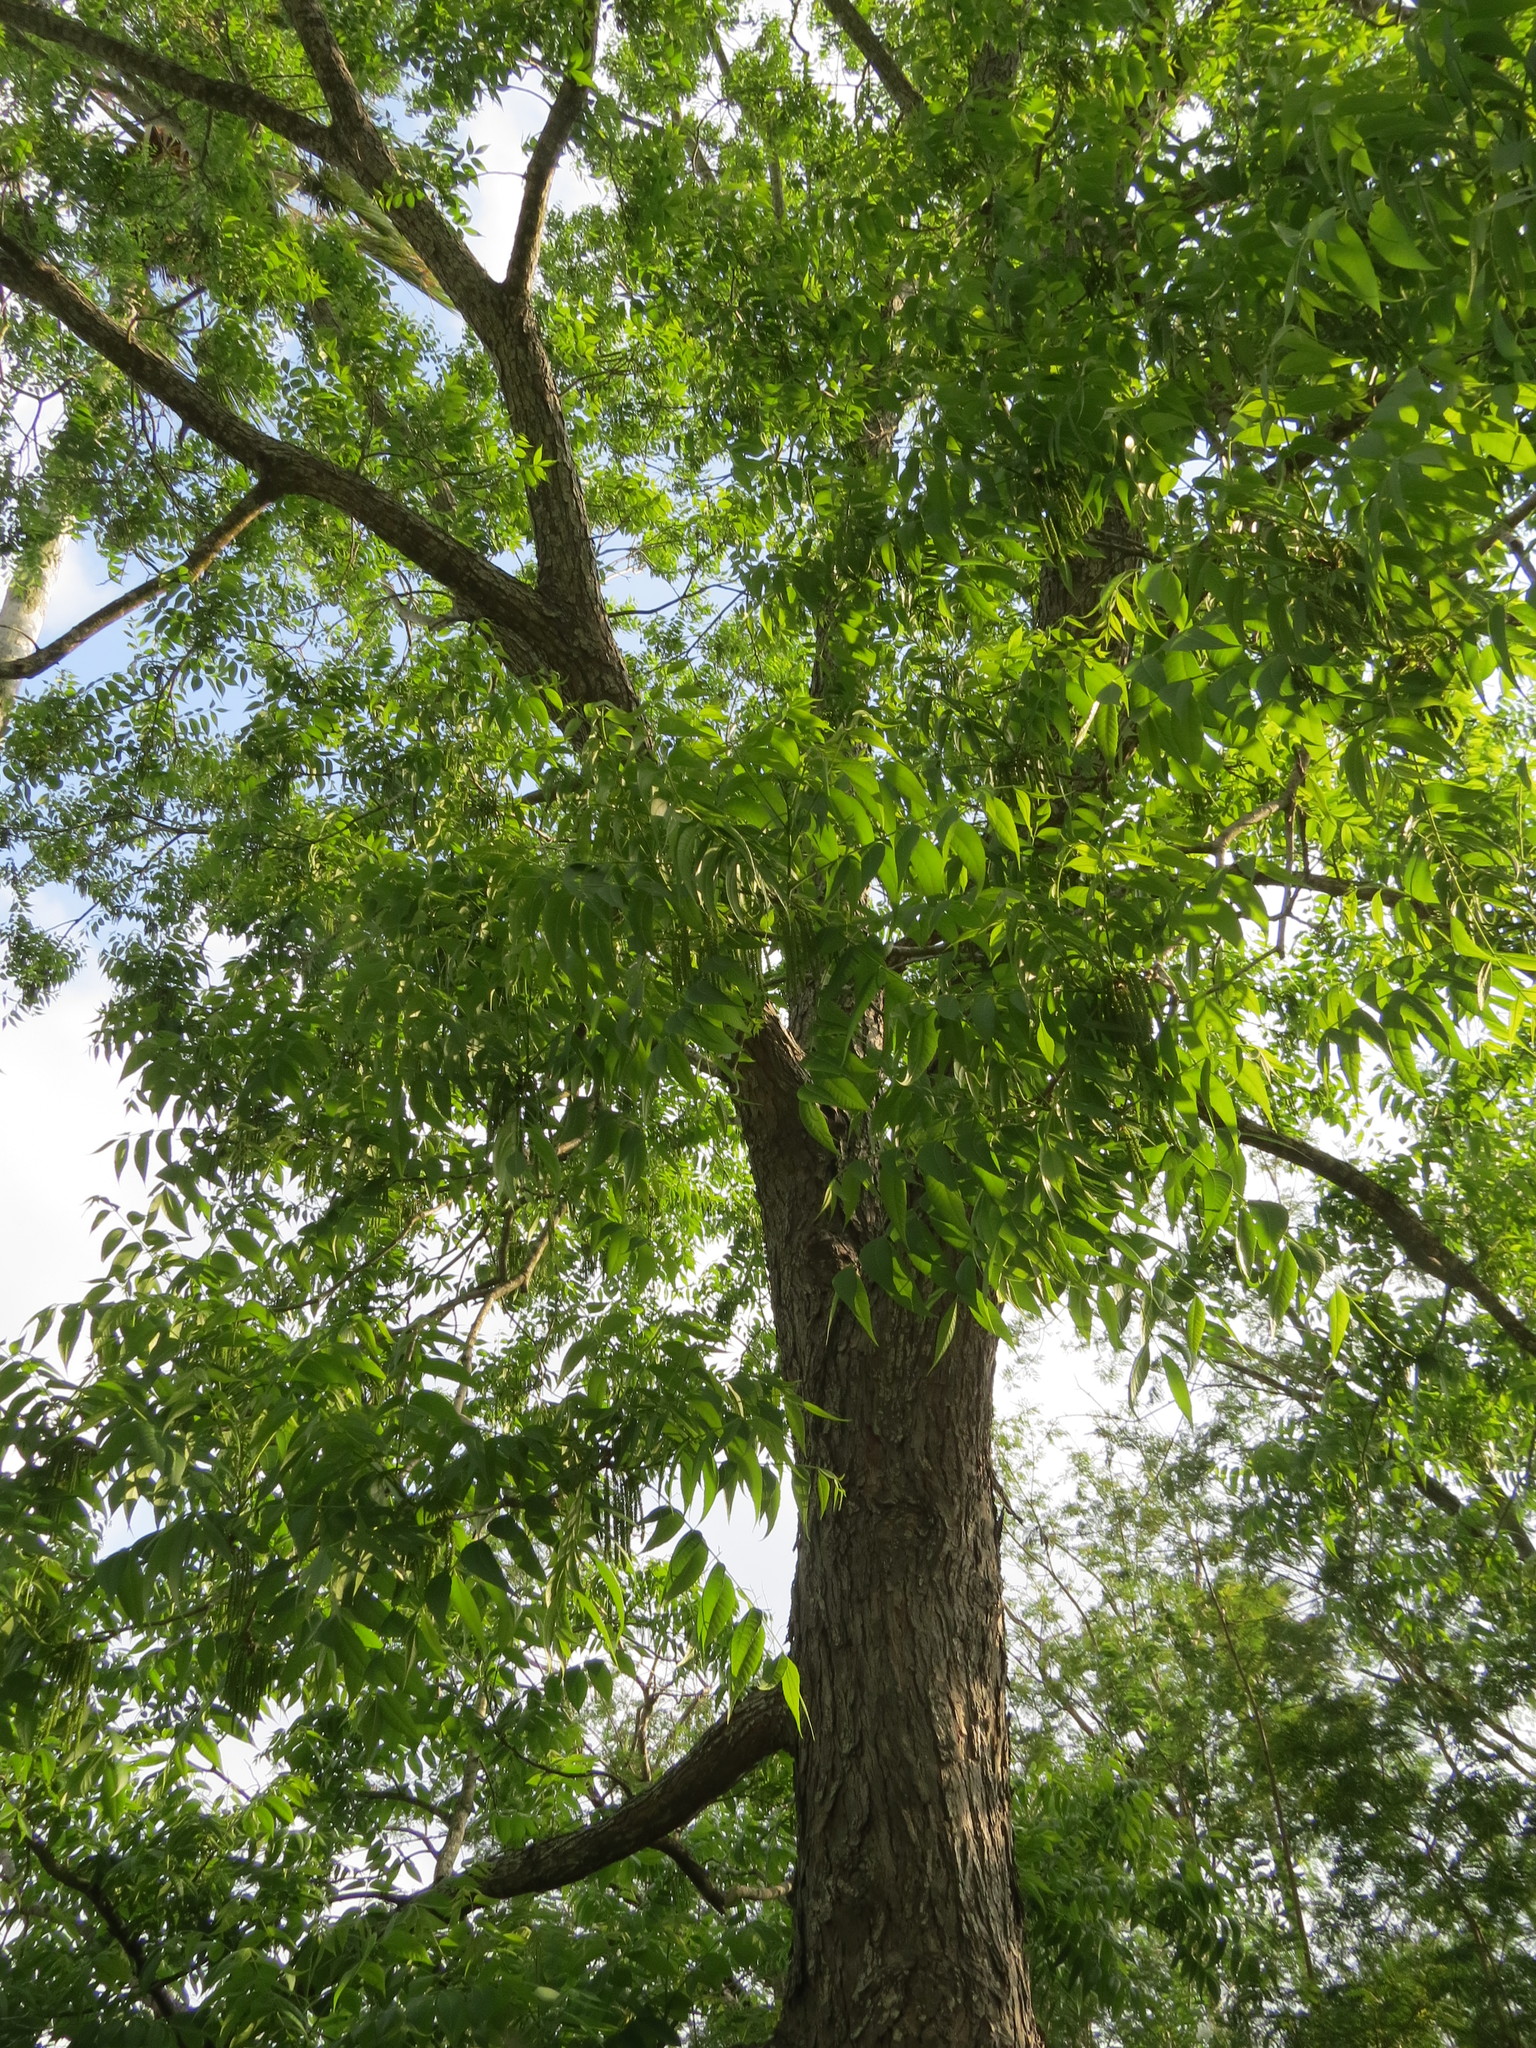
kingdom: Plantae
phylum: Tracheophyta
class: Magnoliopsida
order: Fagales
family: Juglandaceae
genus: Carya
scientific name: Carya illinoinensis
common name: Pecan
